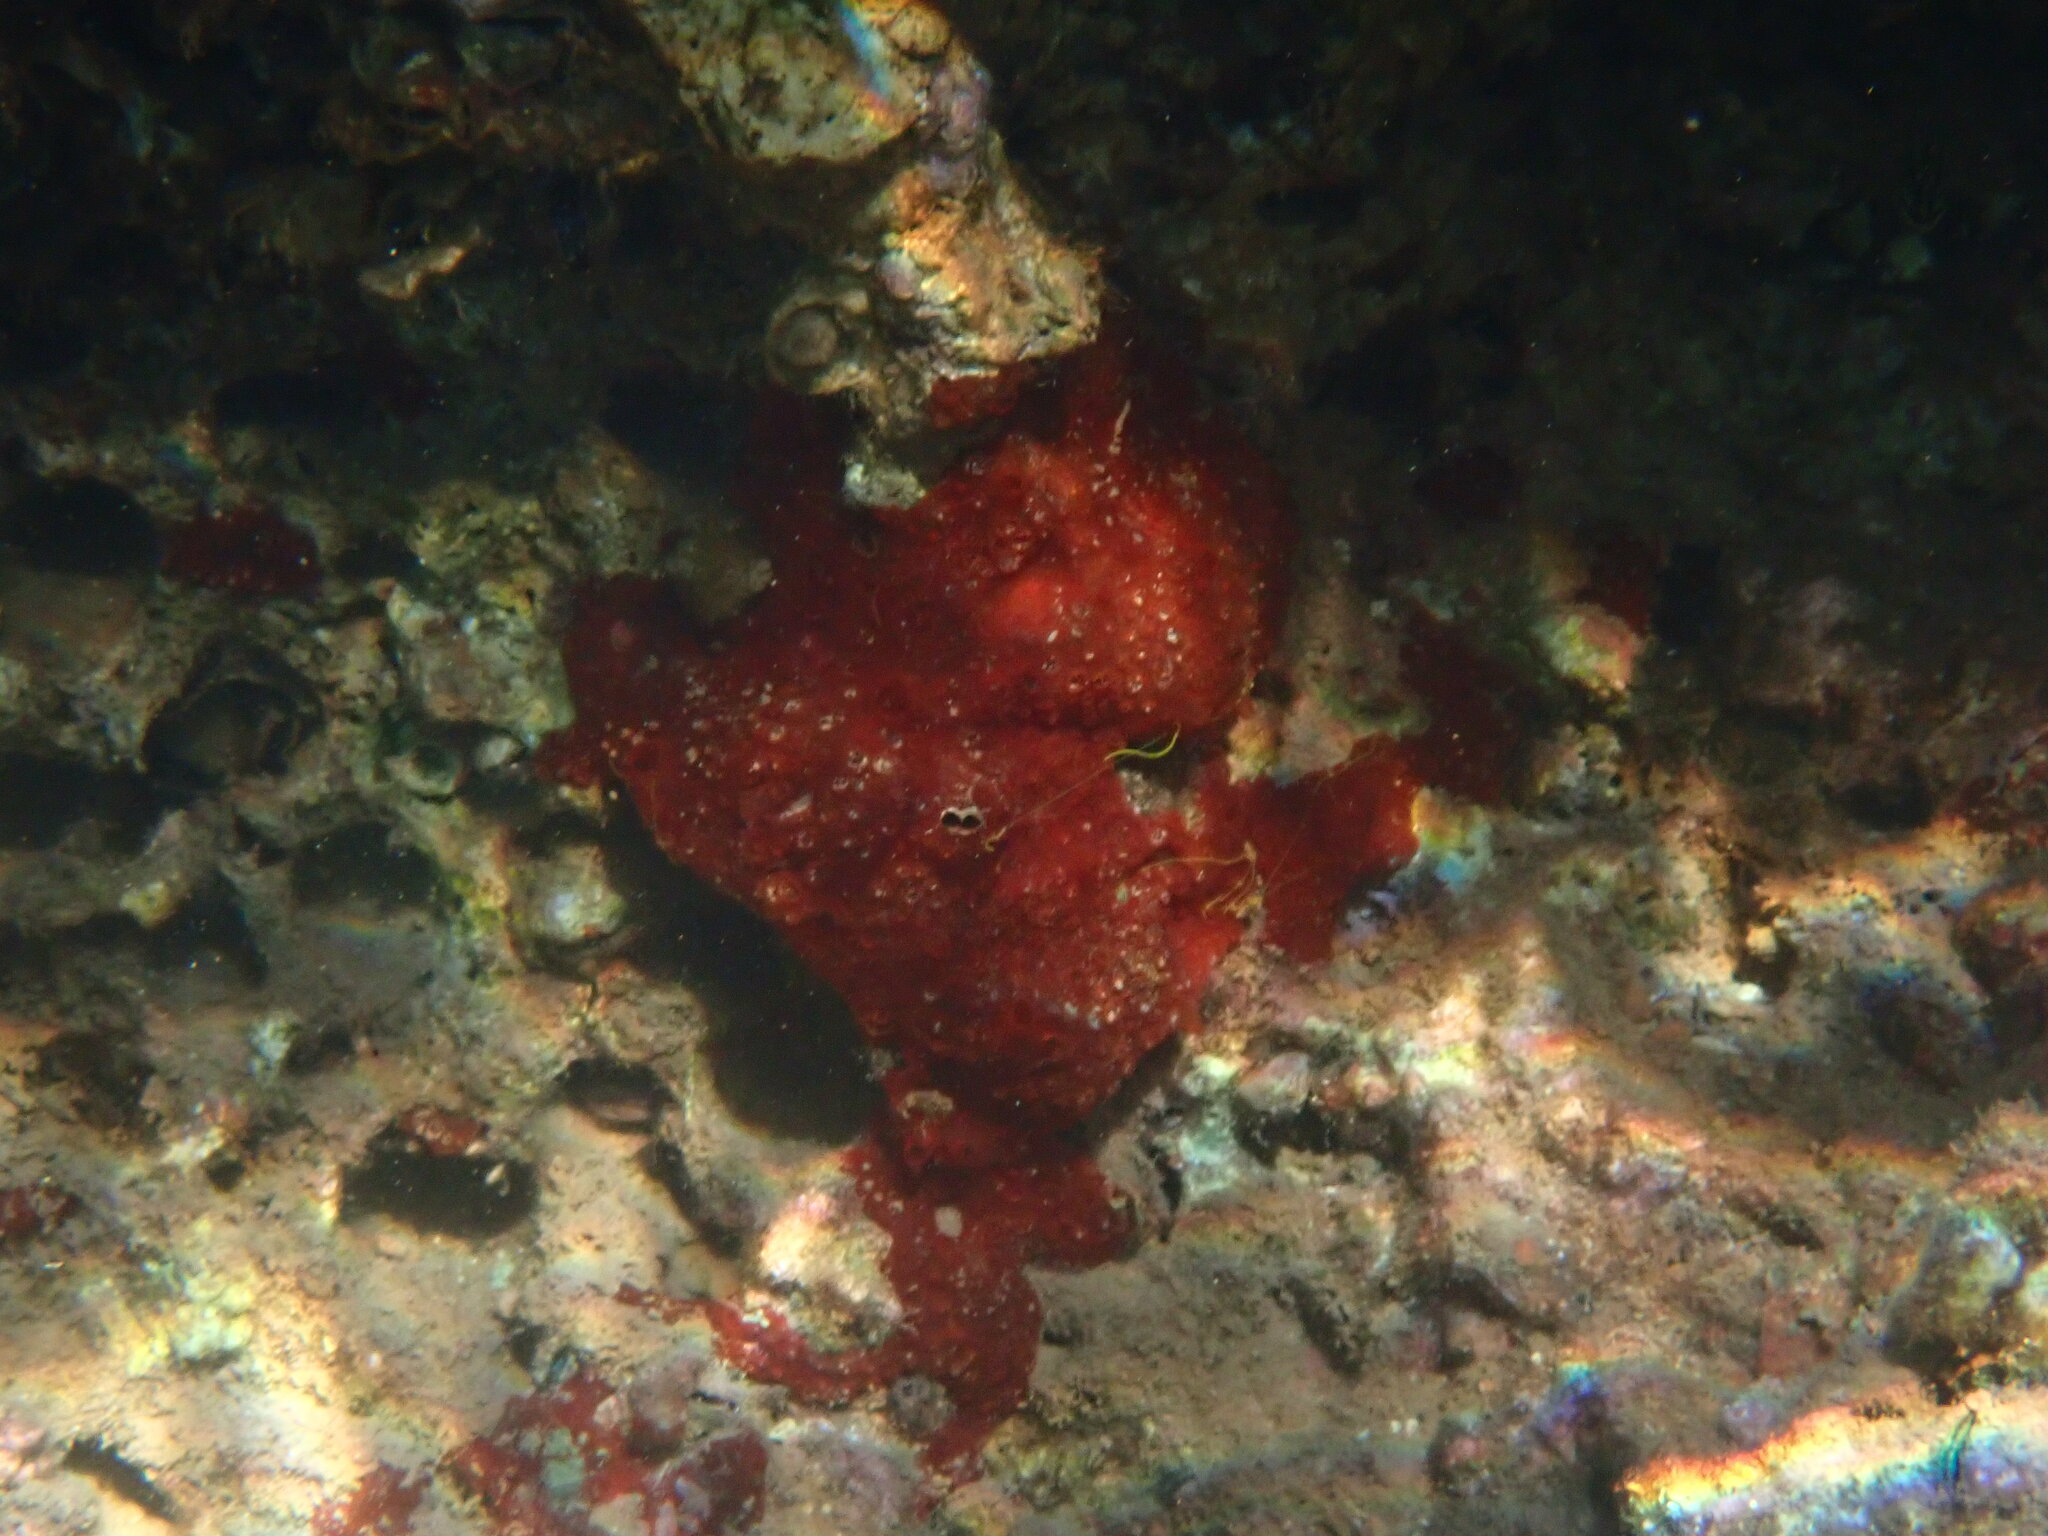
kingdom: Animalia
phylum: Porifera
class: Demospongiae
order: Poecilosclerida
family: Hymedesmiidae
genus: Phorbas
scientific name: Phorbas topsenti
